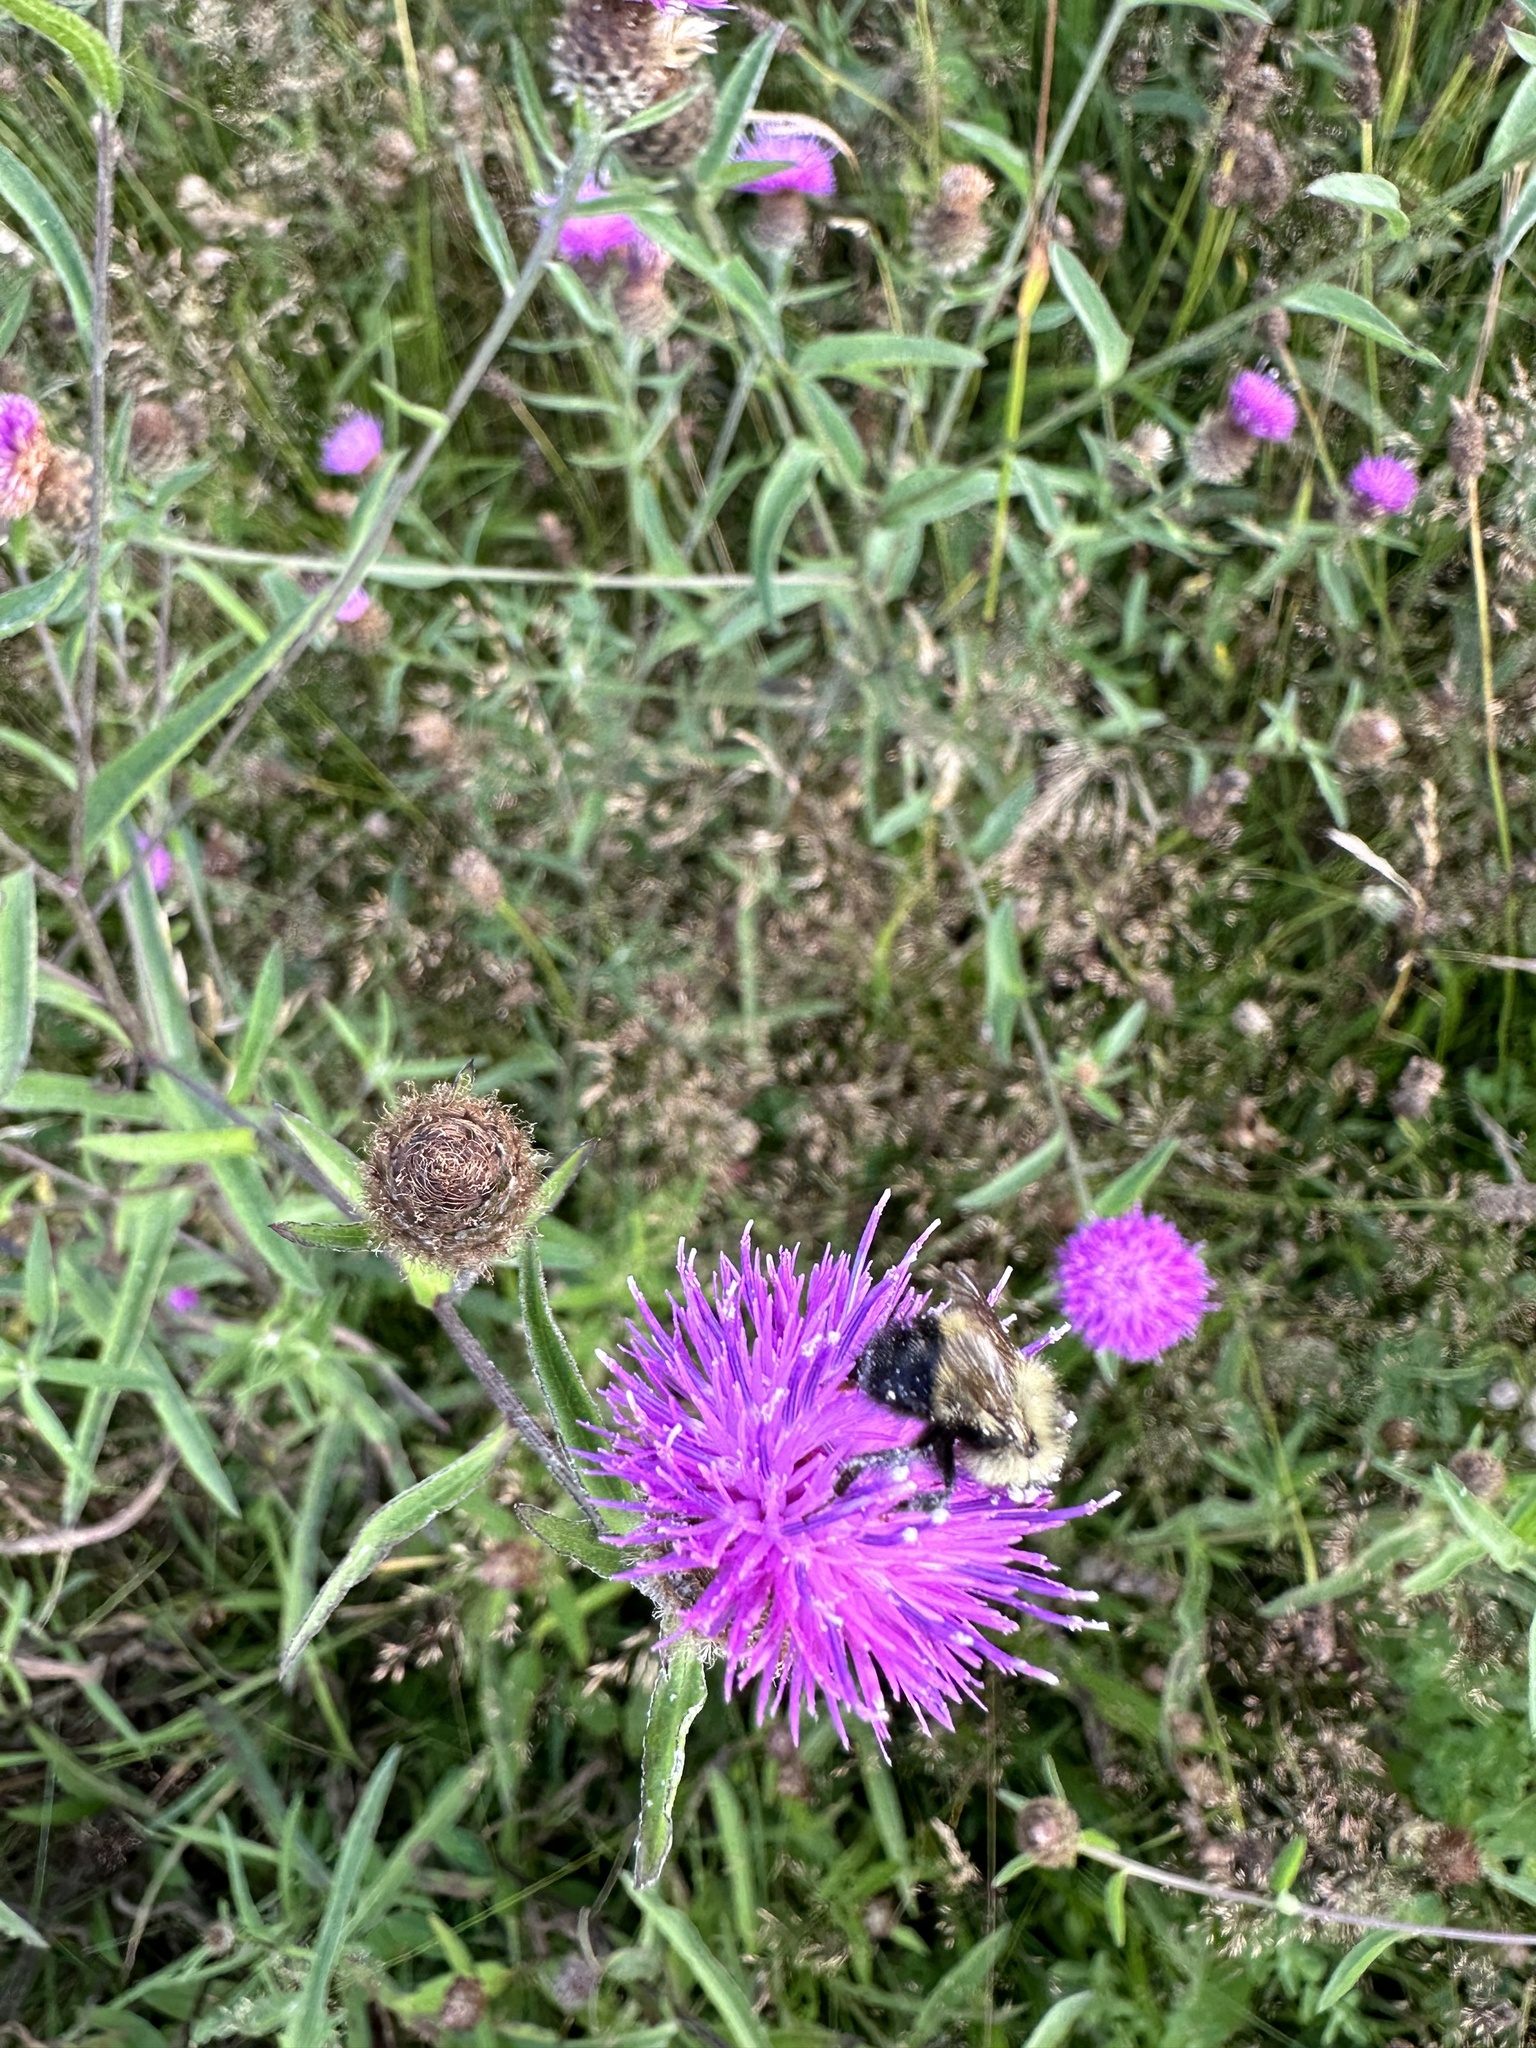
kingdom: Animalia
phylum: Arthropoda
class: Insecta
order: Hymenoptera
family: Apidae
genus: Bombus
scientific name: Bombus vagans
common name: Half-black bumble bee
